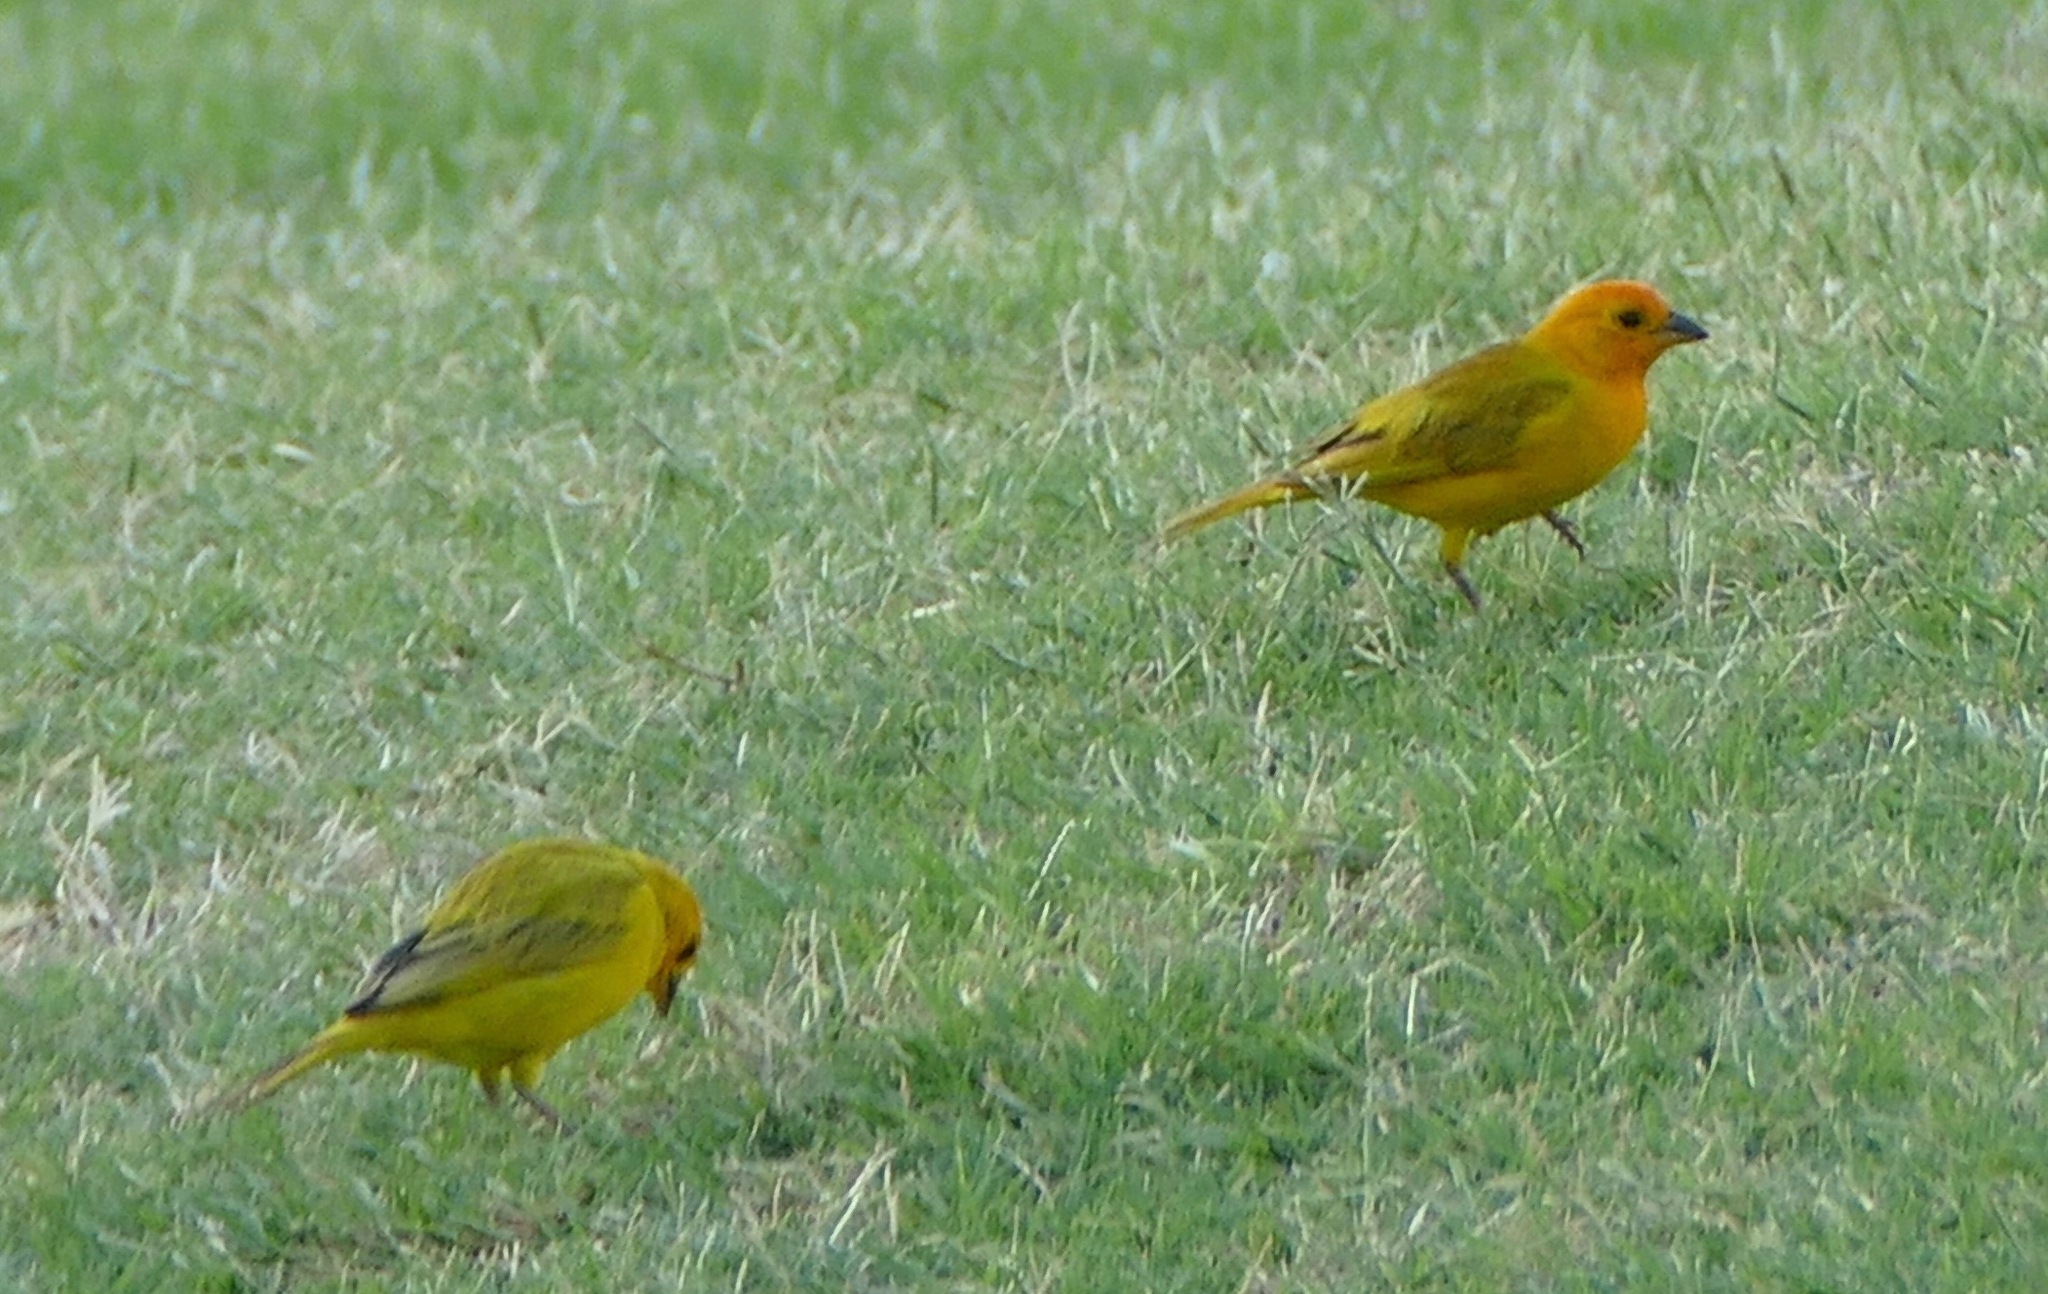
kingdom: Animalia
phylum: Chordata
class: Aves
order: Passeriformes
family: Thraupidae
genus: Sicalis
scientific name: Sicalis flaveola
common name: Saffron finch
